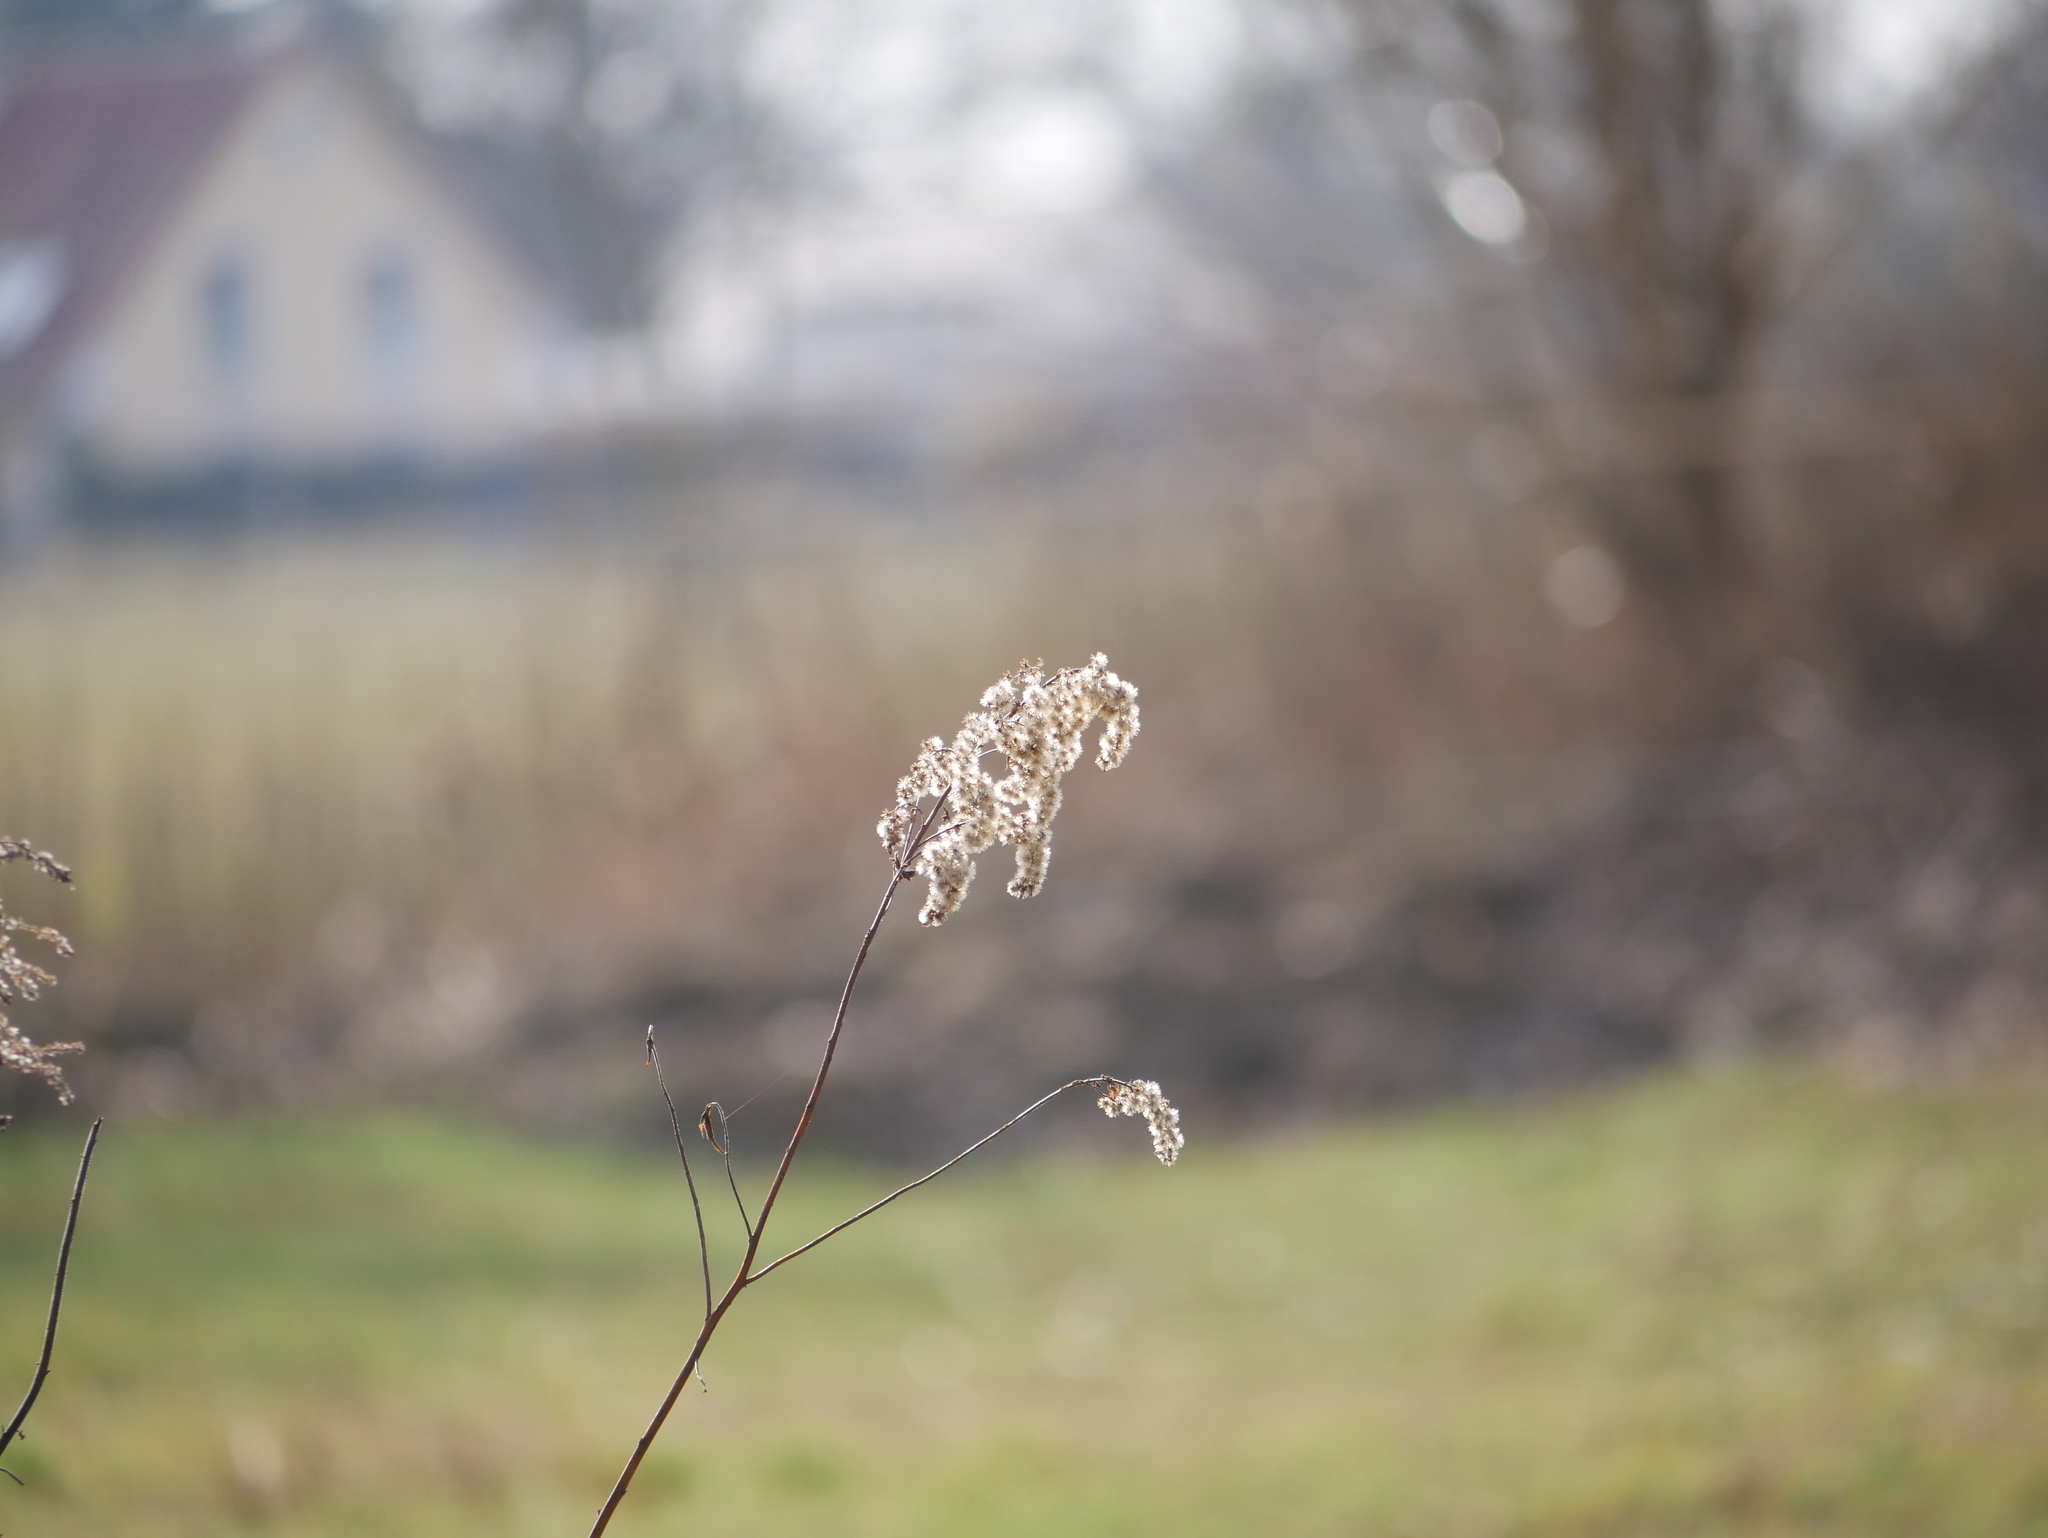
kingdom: Plantae
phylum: Tracheophyta
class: Magnoliopsida
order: Asterales
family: Asteraceae
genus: Solidago
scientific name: Solidago
